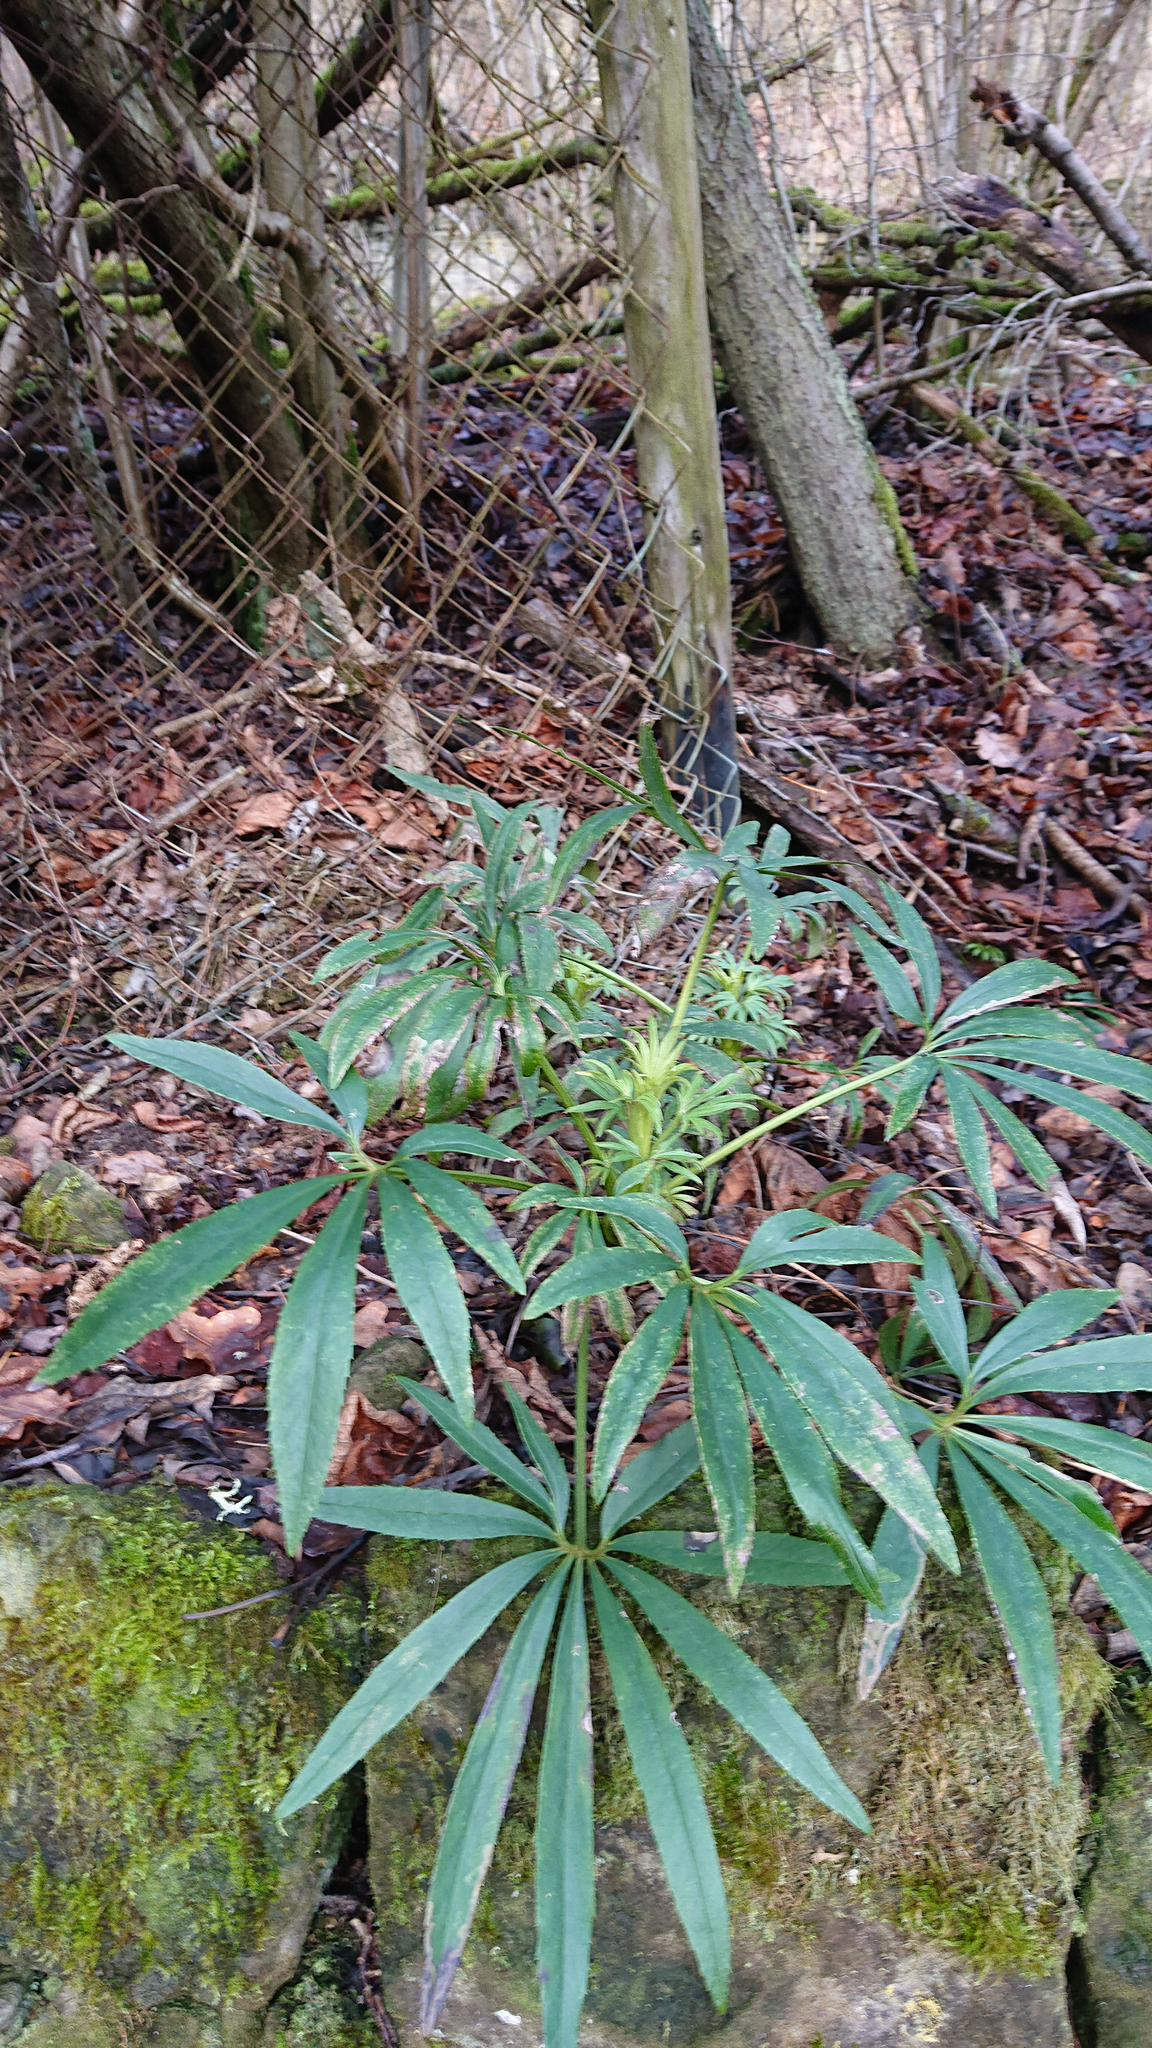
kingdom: Plantae
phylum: Tracheophyta
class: Magnoliopsida
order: Ranunculales
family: Ranunculaceae
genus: Helleborus
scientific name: Helleborus foetidus
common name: Stinking hellebore
